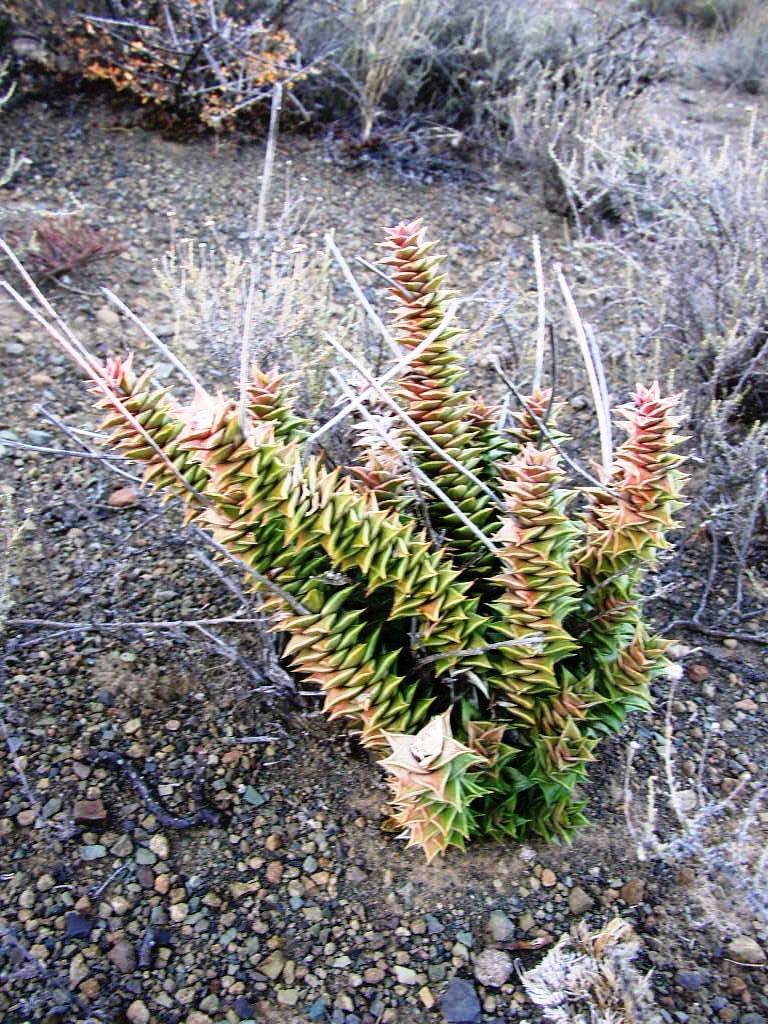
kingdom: Plantae
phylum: Tracheophyta
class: Liliopsida
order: Asparagales
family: Asphodelaceae
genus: Astroloba
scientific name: Astroloba foliolosa
